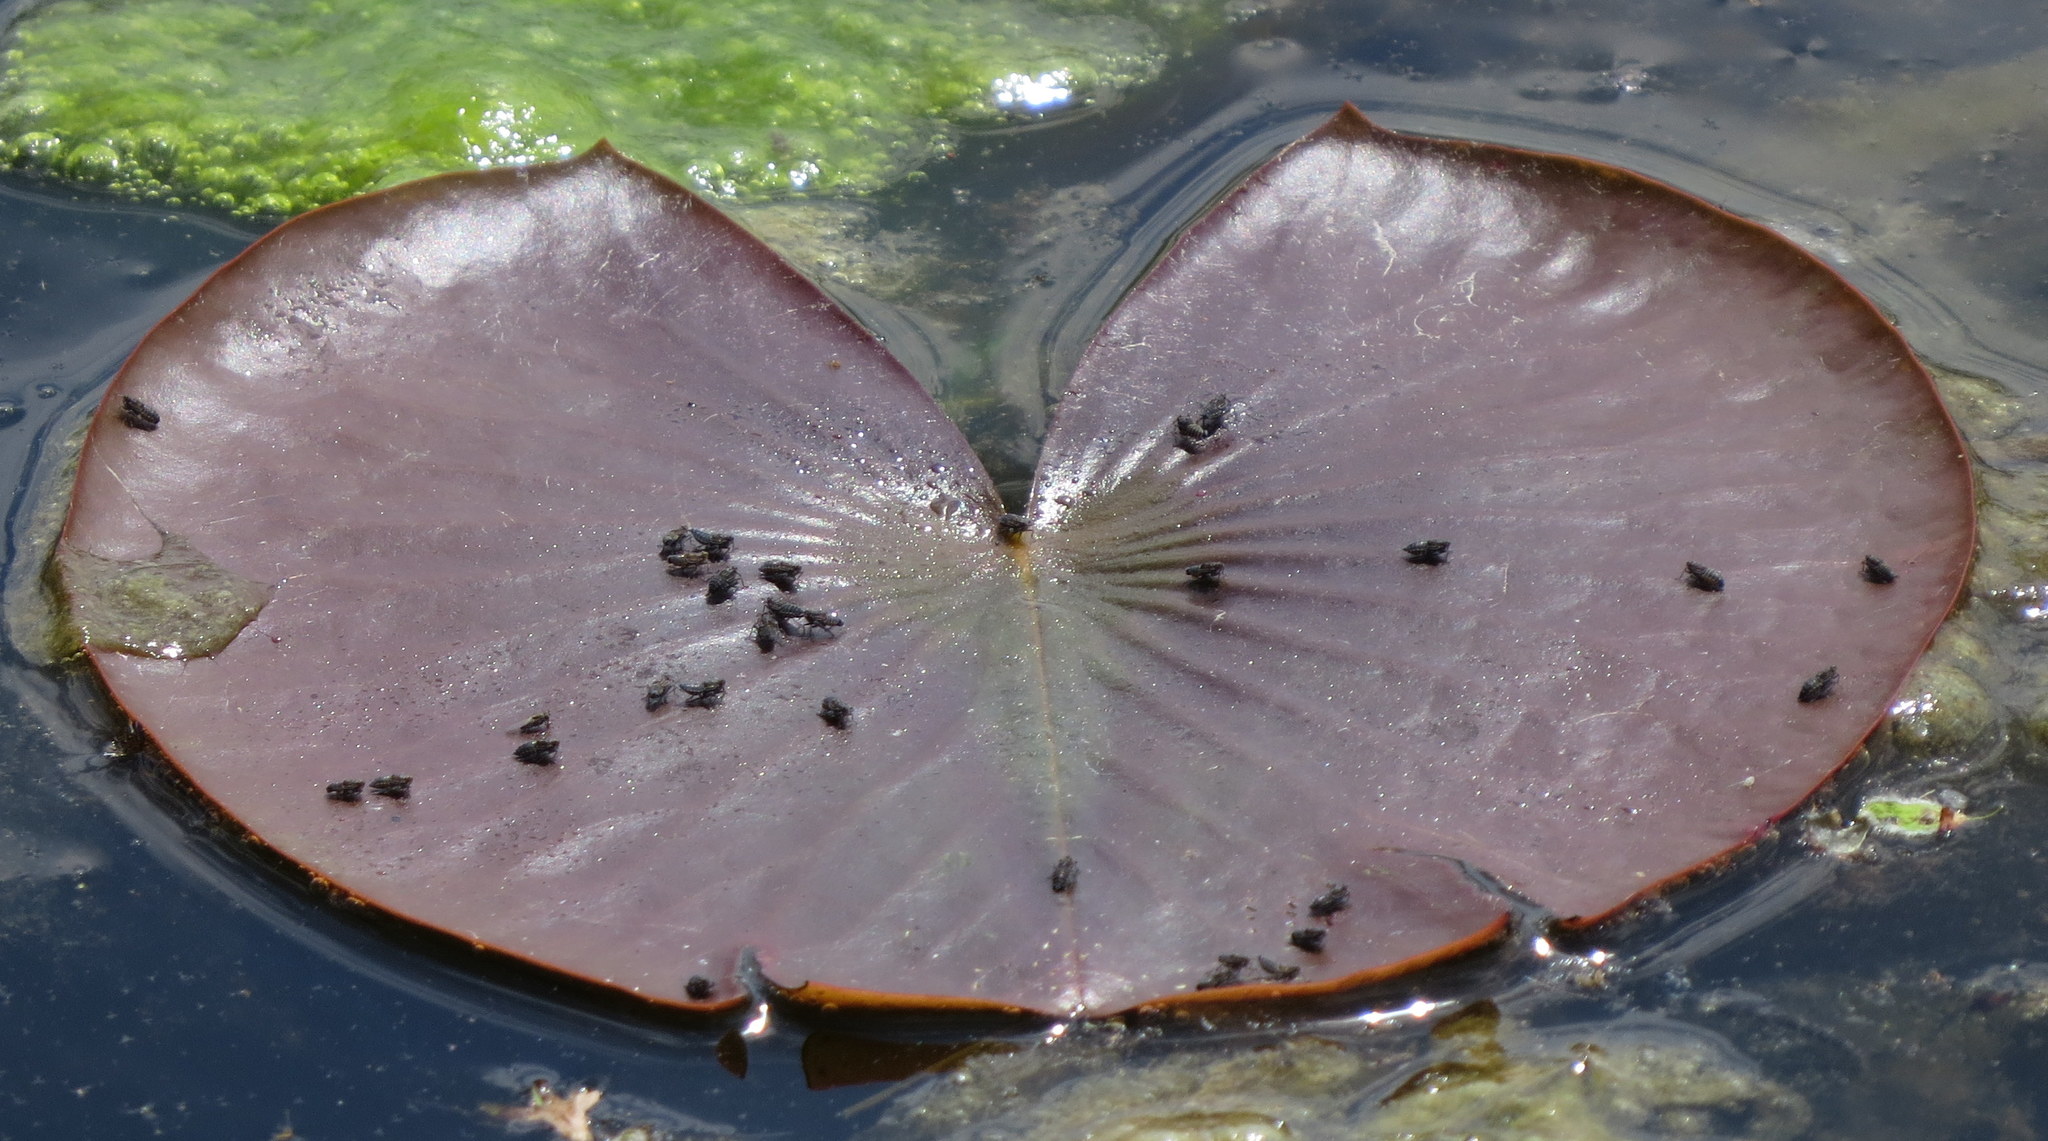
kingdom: Animalia
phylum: Arthropoda
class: Insecta
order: Hemiptera
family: Delphacidae
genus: Megamelus
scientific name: Megamelus davisi
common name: Planthopper
